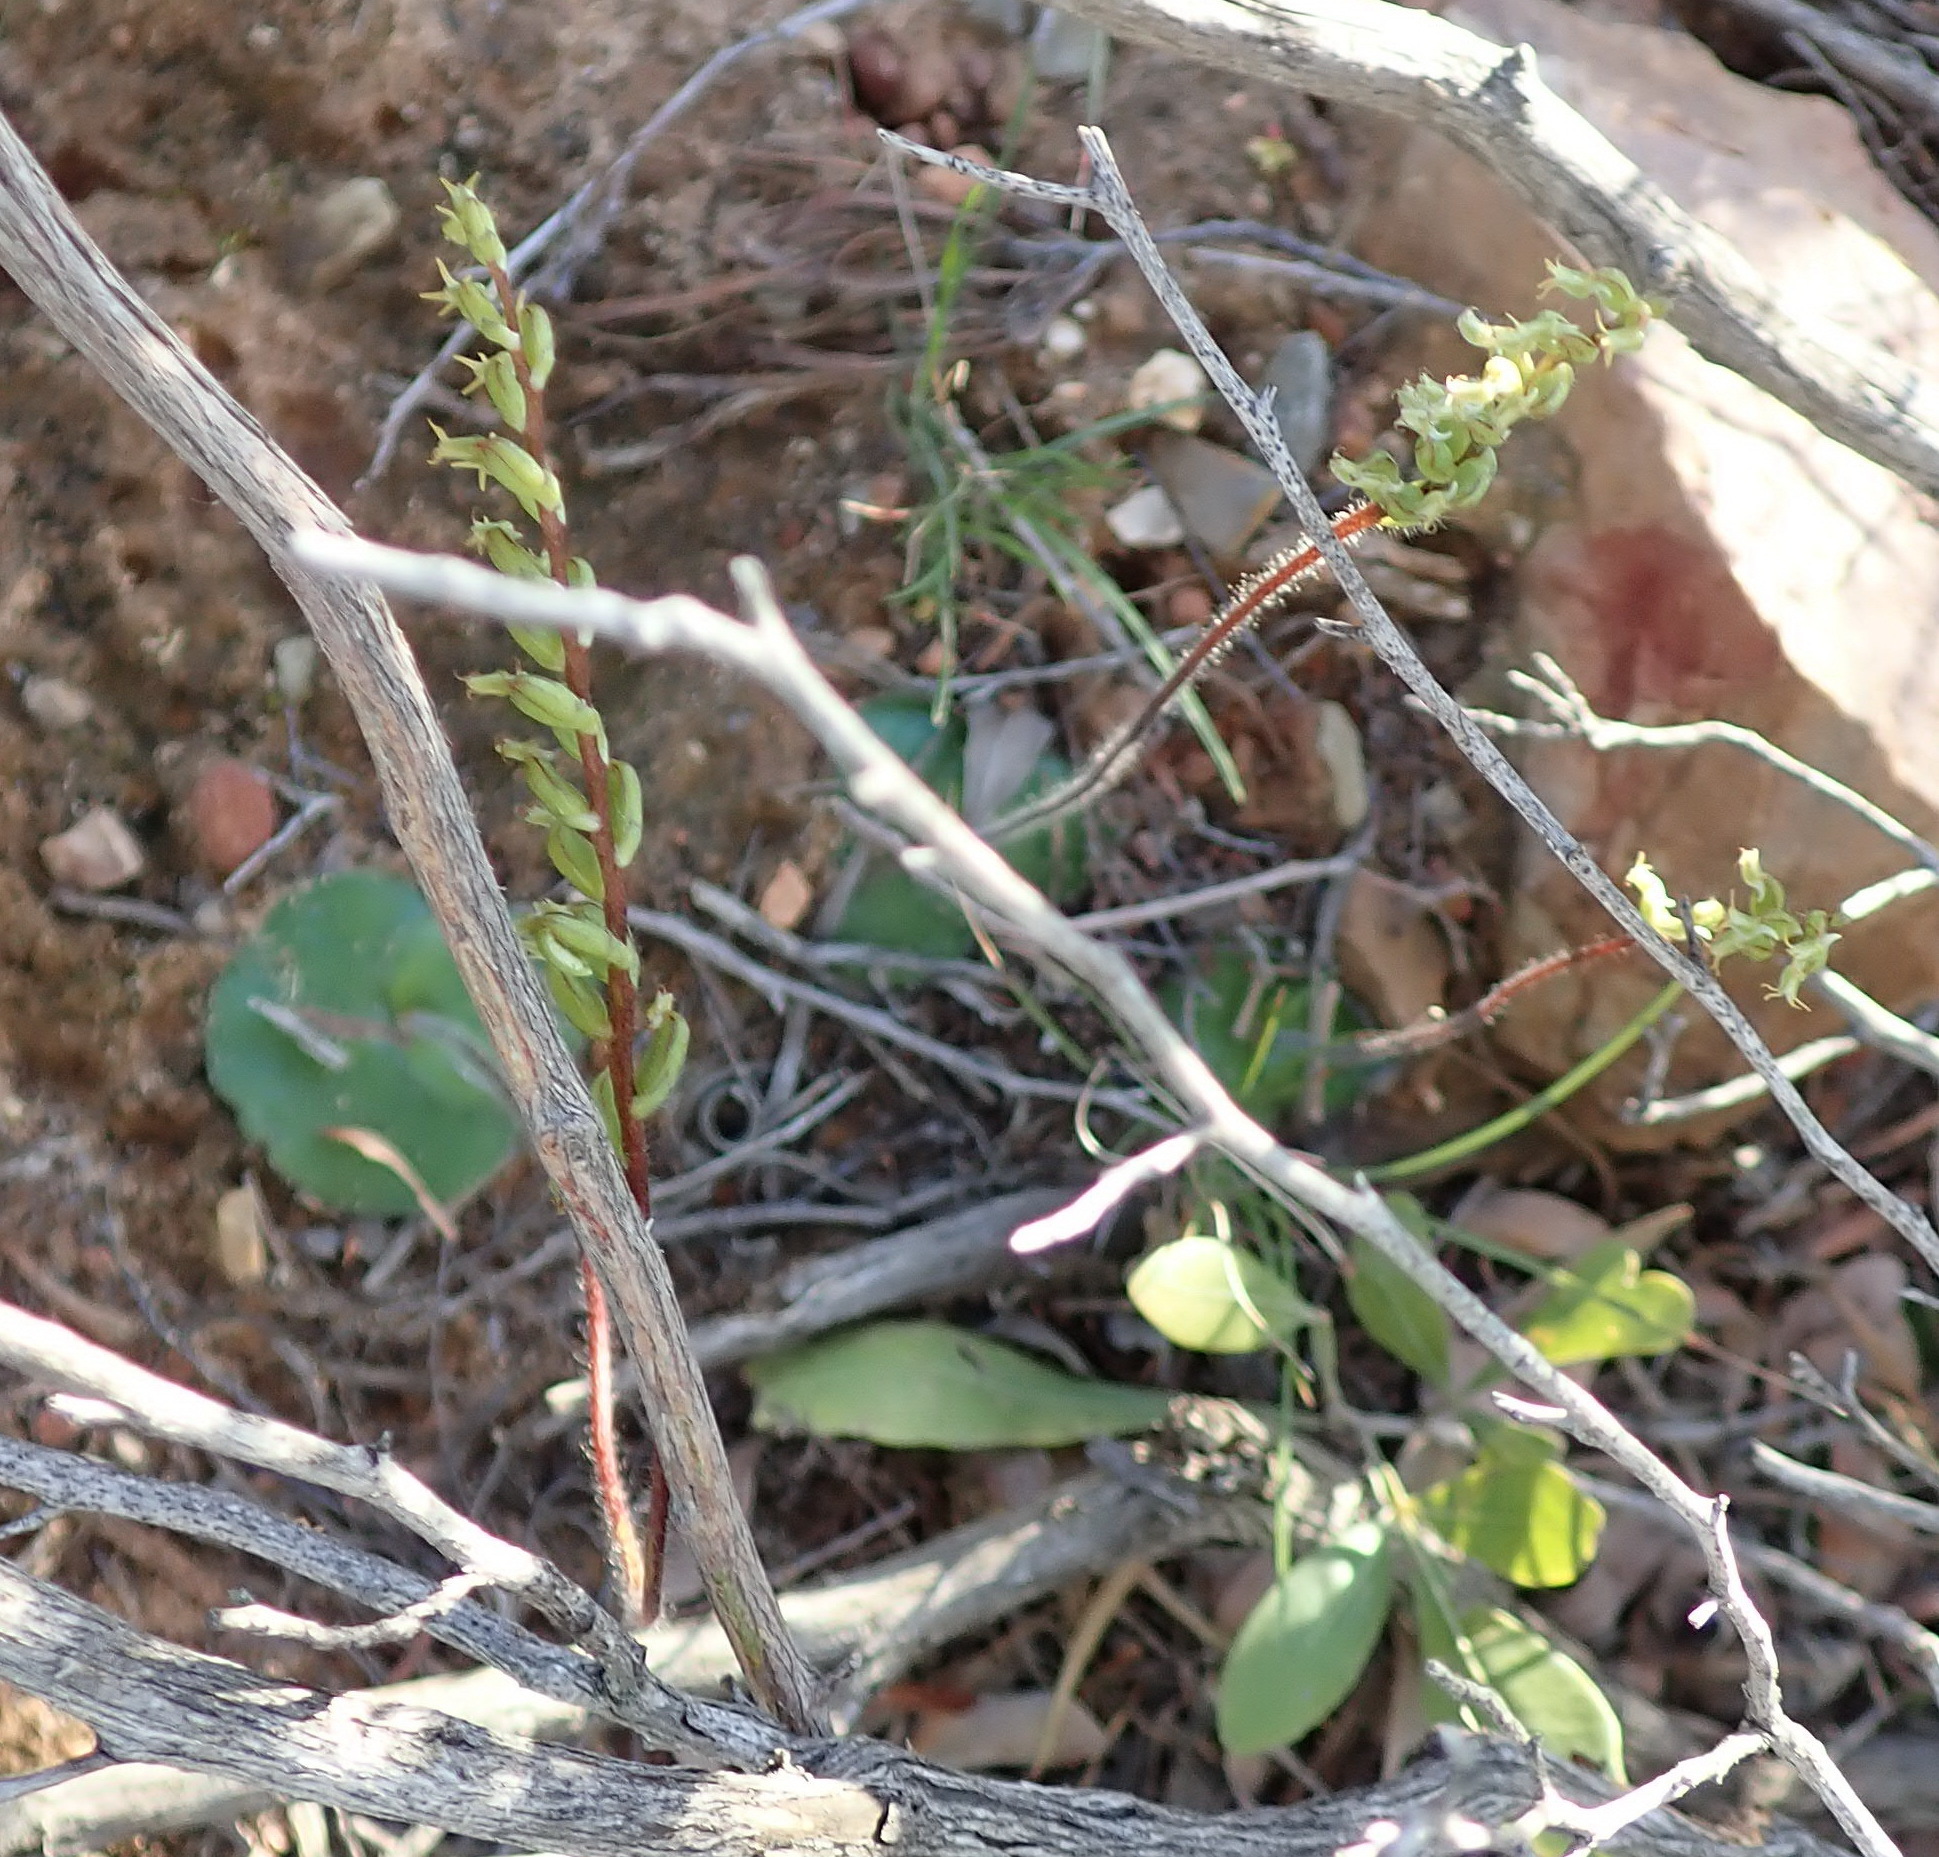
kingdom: Plantae
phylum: Tracheophyta
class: Liliopsida
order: Asparagales
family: Orchidaceae
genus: Holothrix
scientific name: Holothrix villosa
